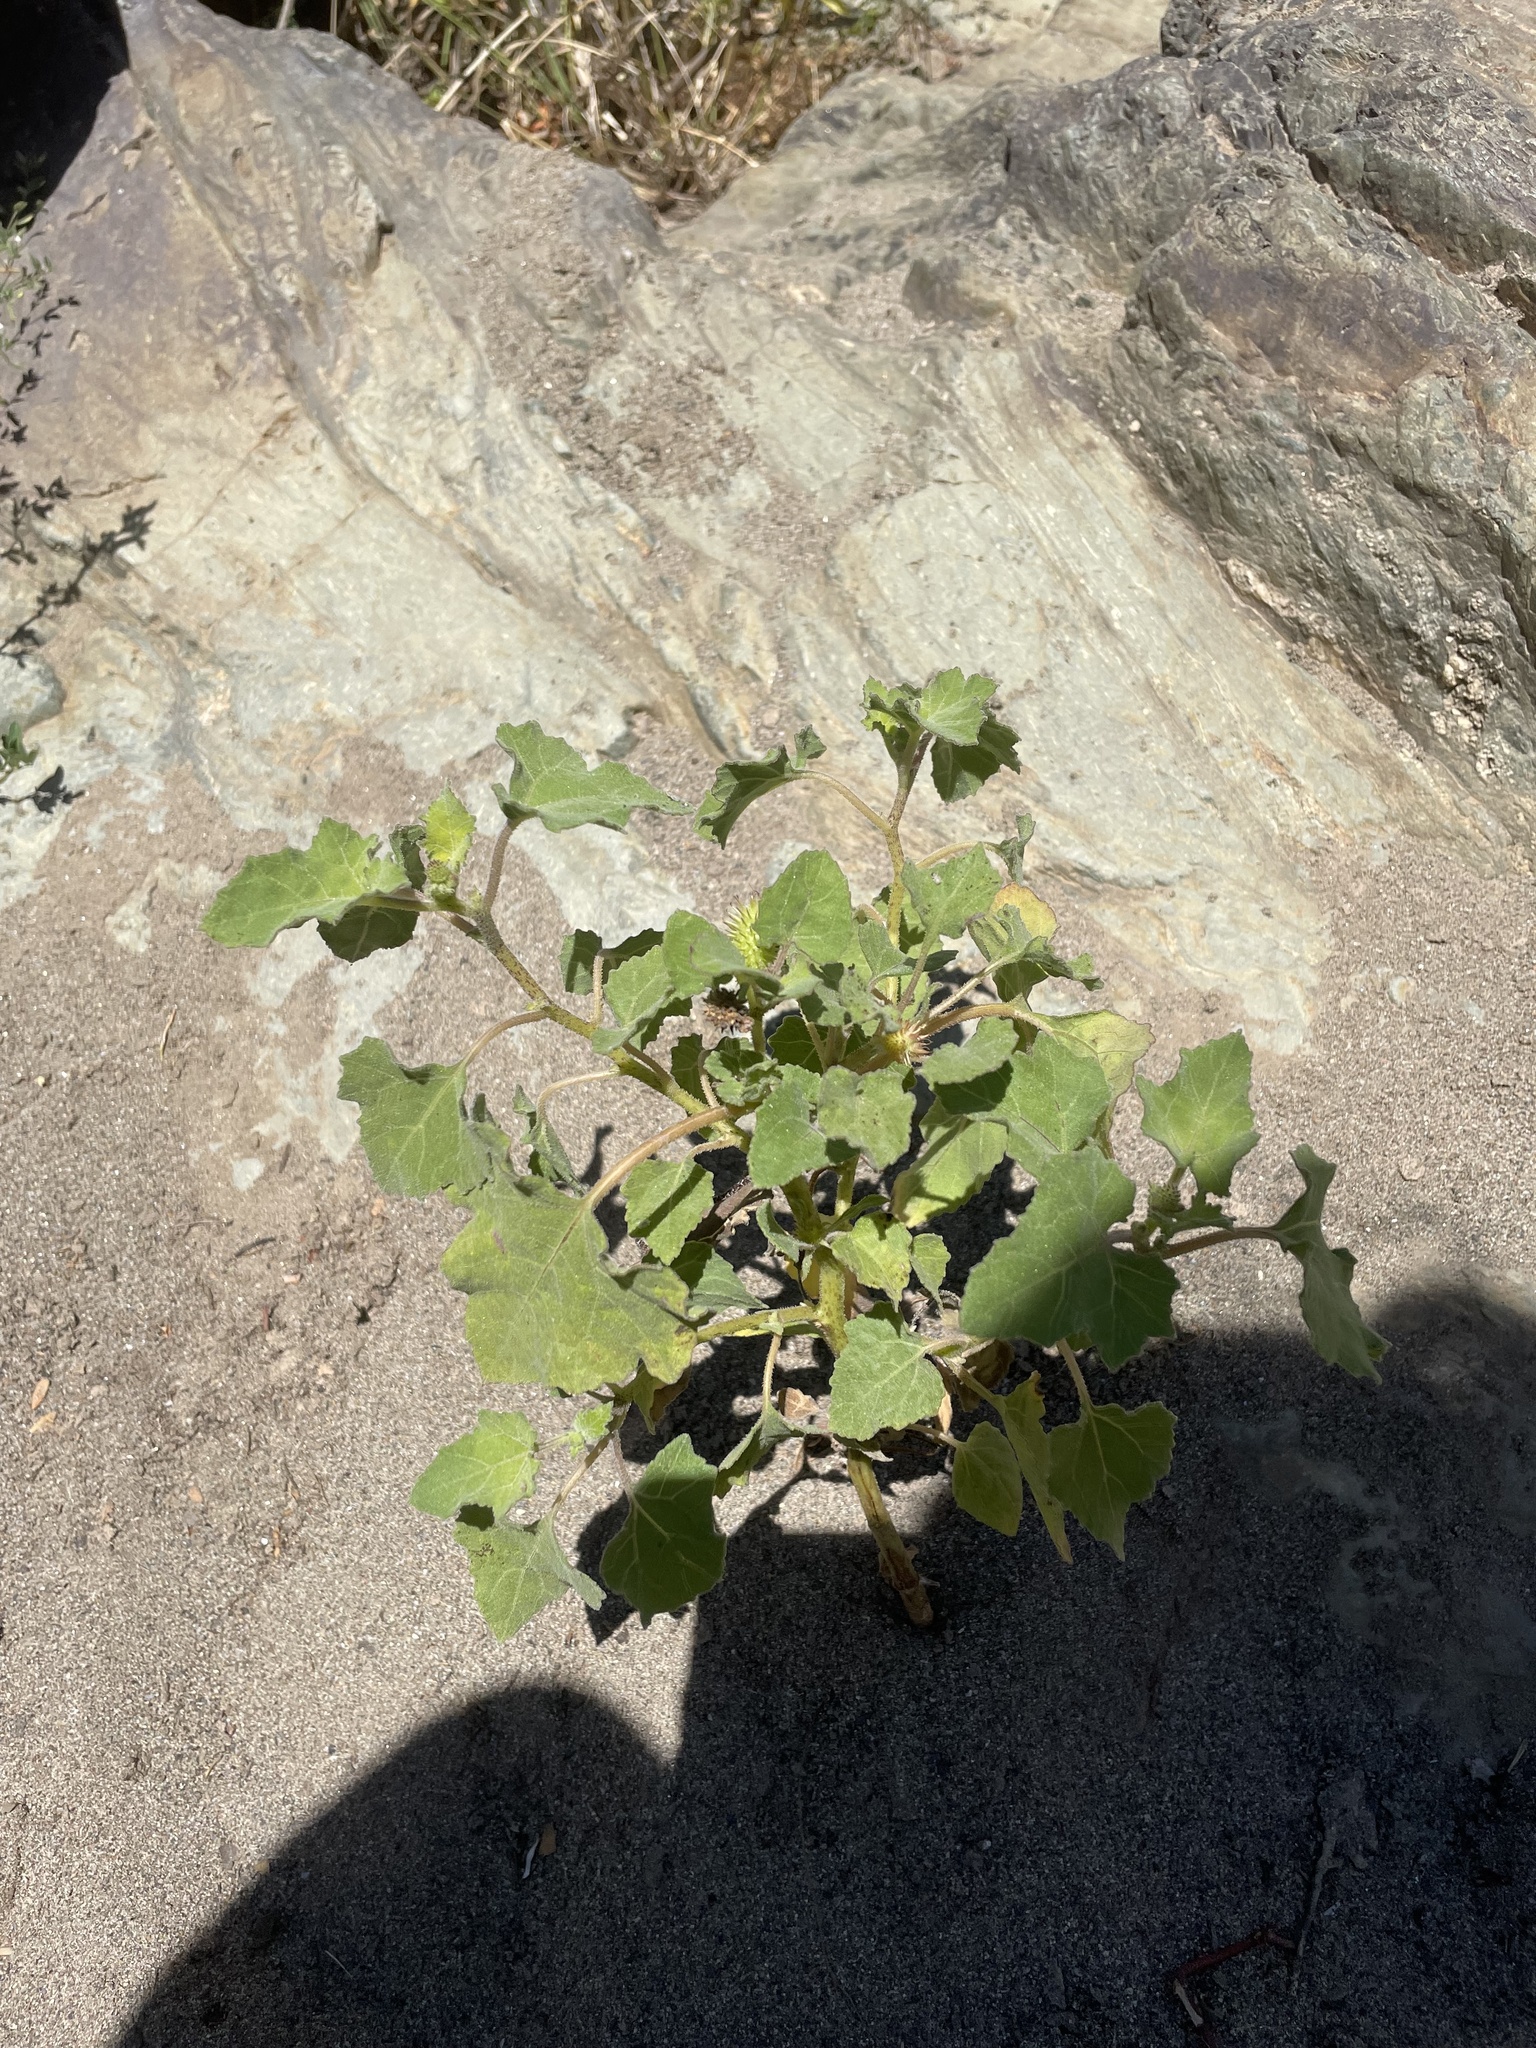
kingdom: Plantae
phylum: Tracheophyta
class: Magnoliopsida
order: Asterales
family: Asteraceae
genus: Xanthium
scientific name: Xanthium strumarium
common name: Rough cocklebur
